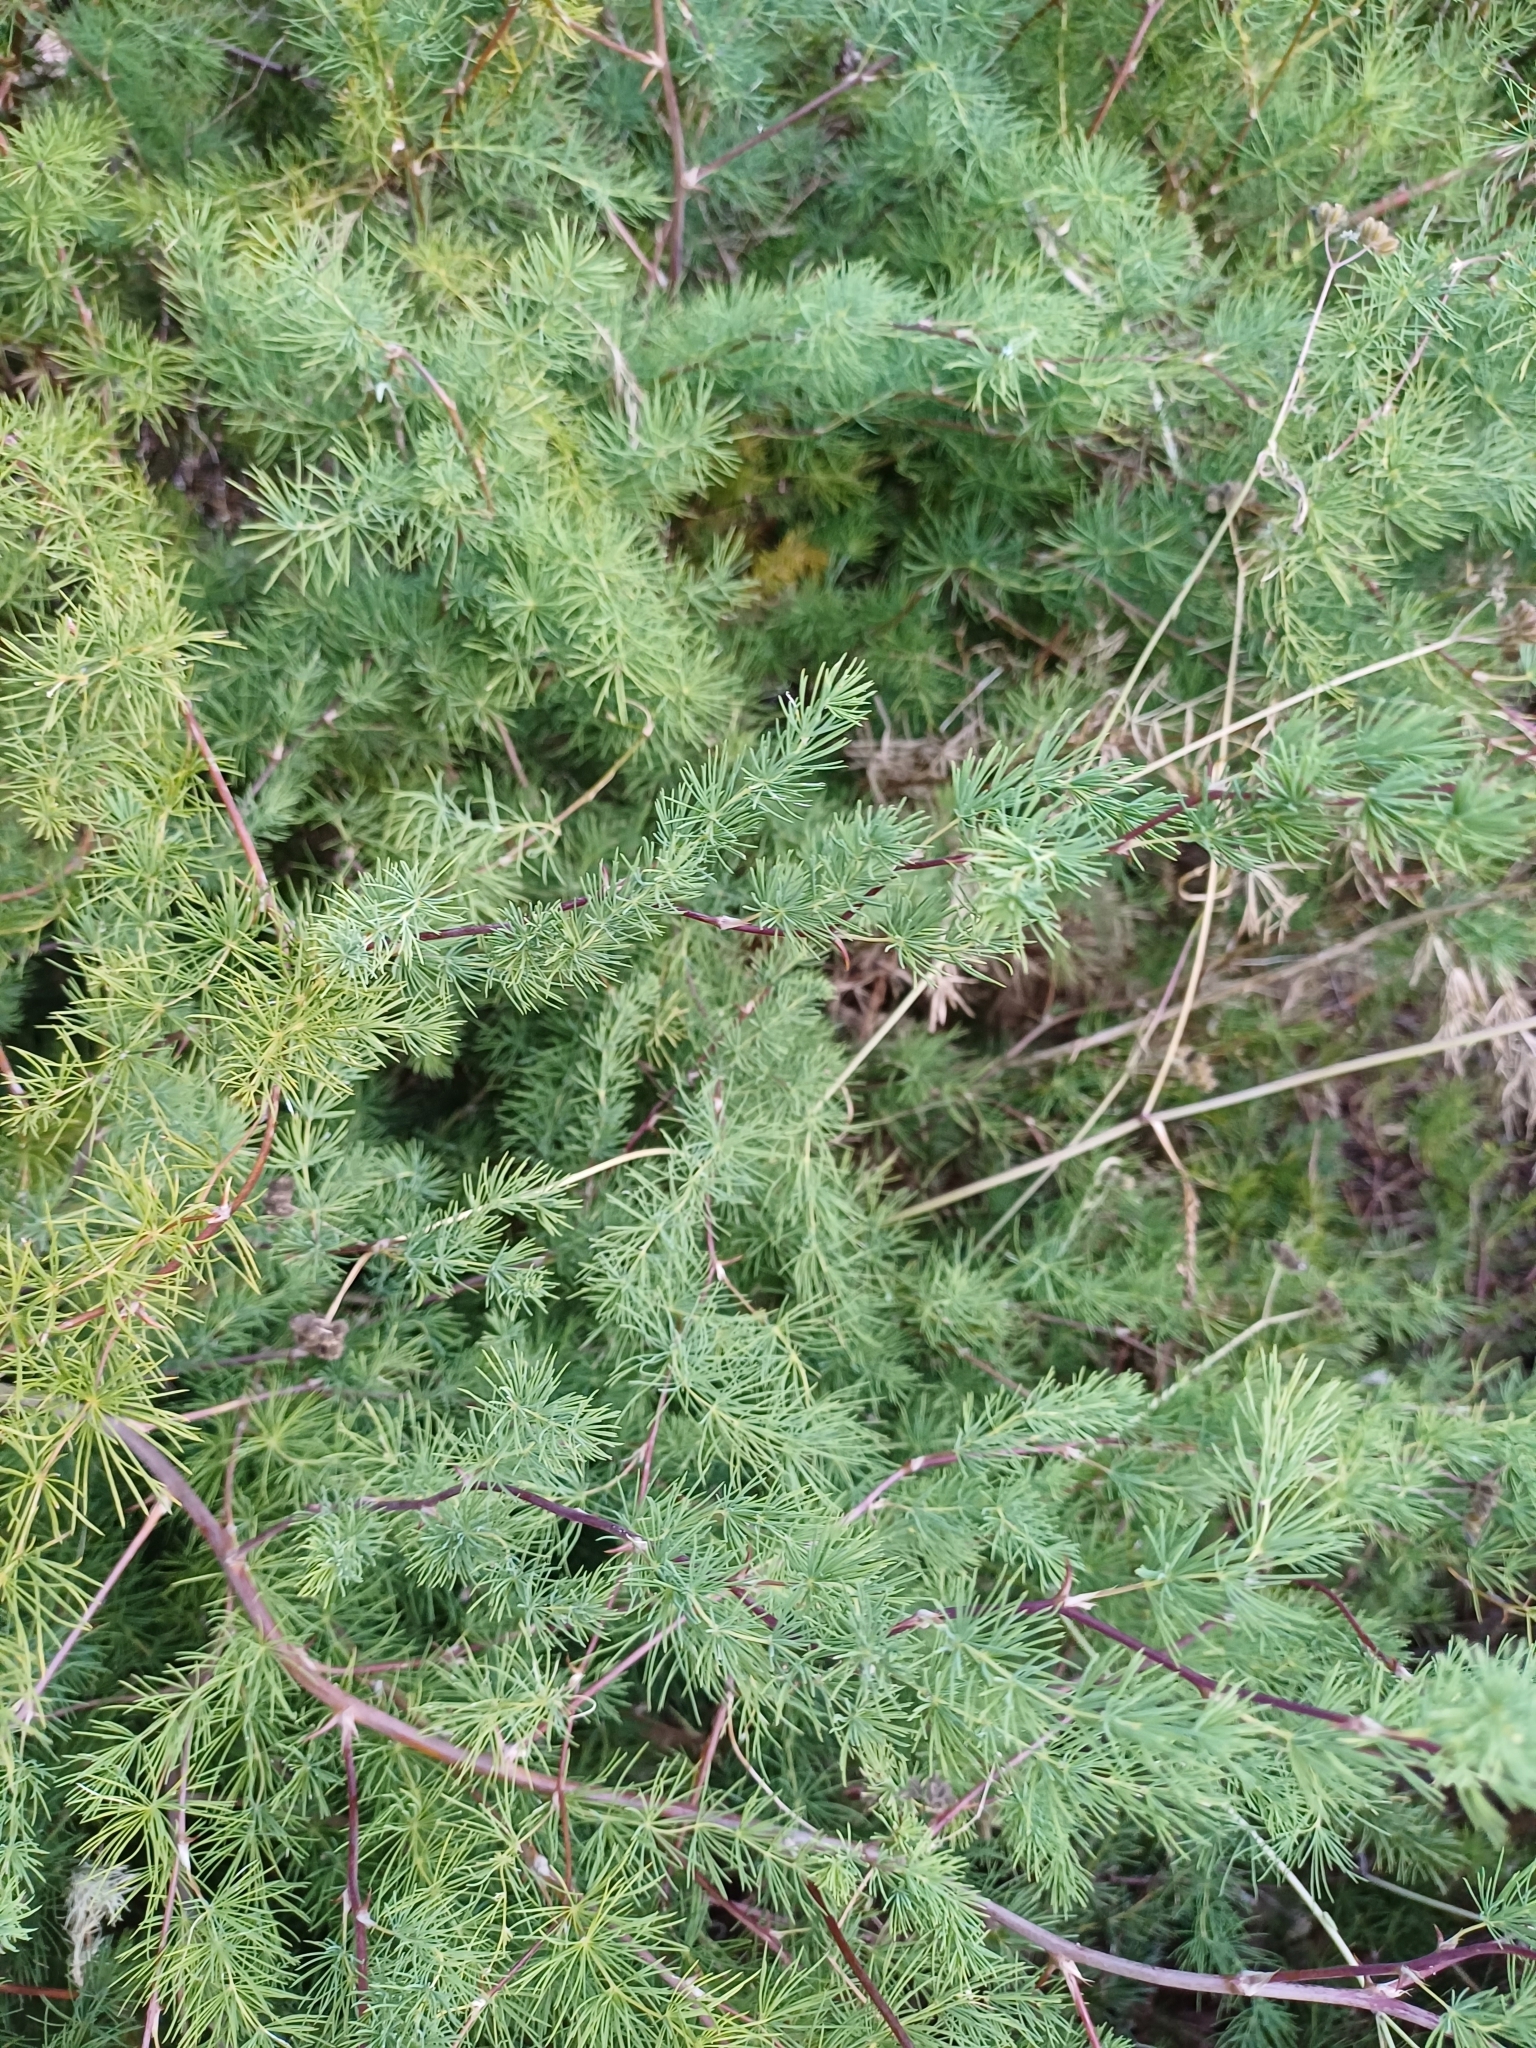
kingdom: Plantae
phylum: Tracheophyta
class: Liliopsida
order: Asparagales
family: Asparagaceae
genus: Asparagus
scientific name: Asparagus rubicundus
